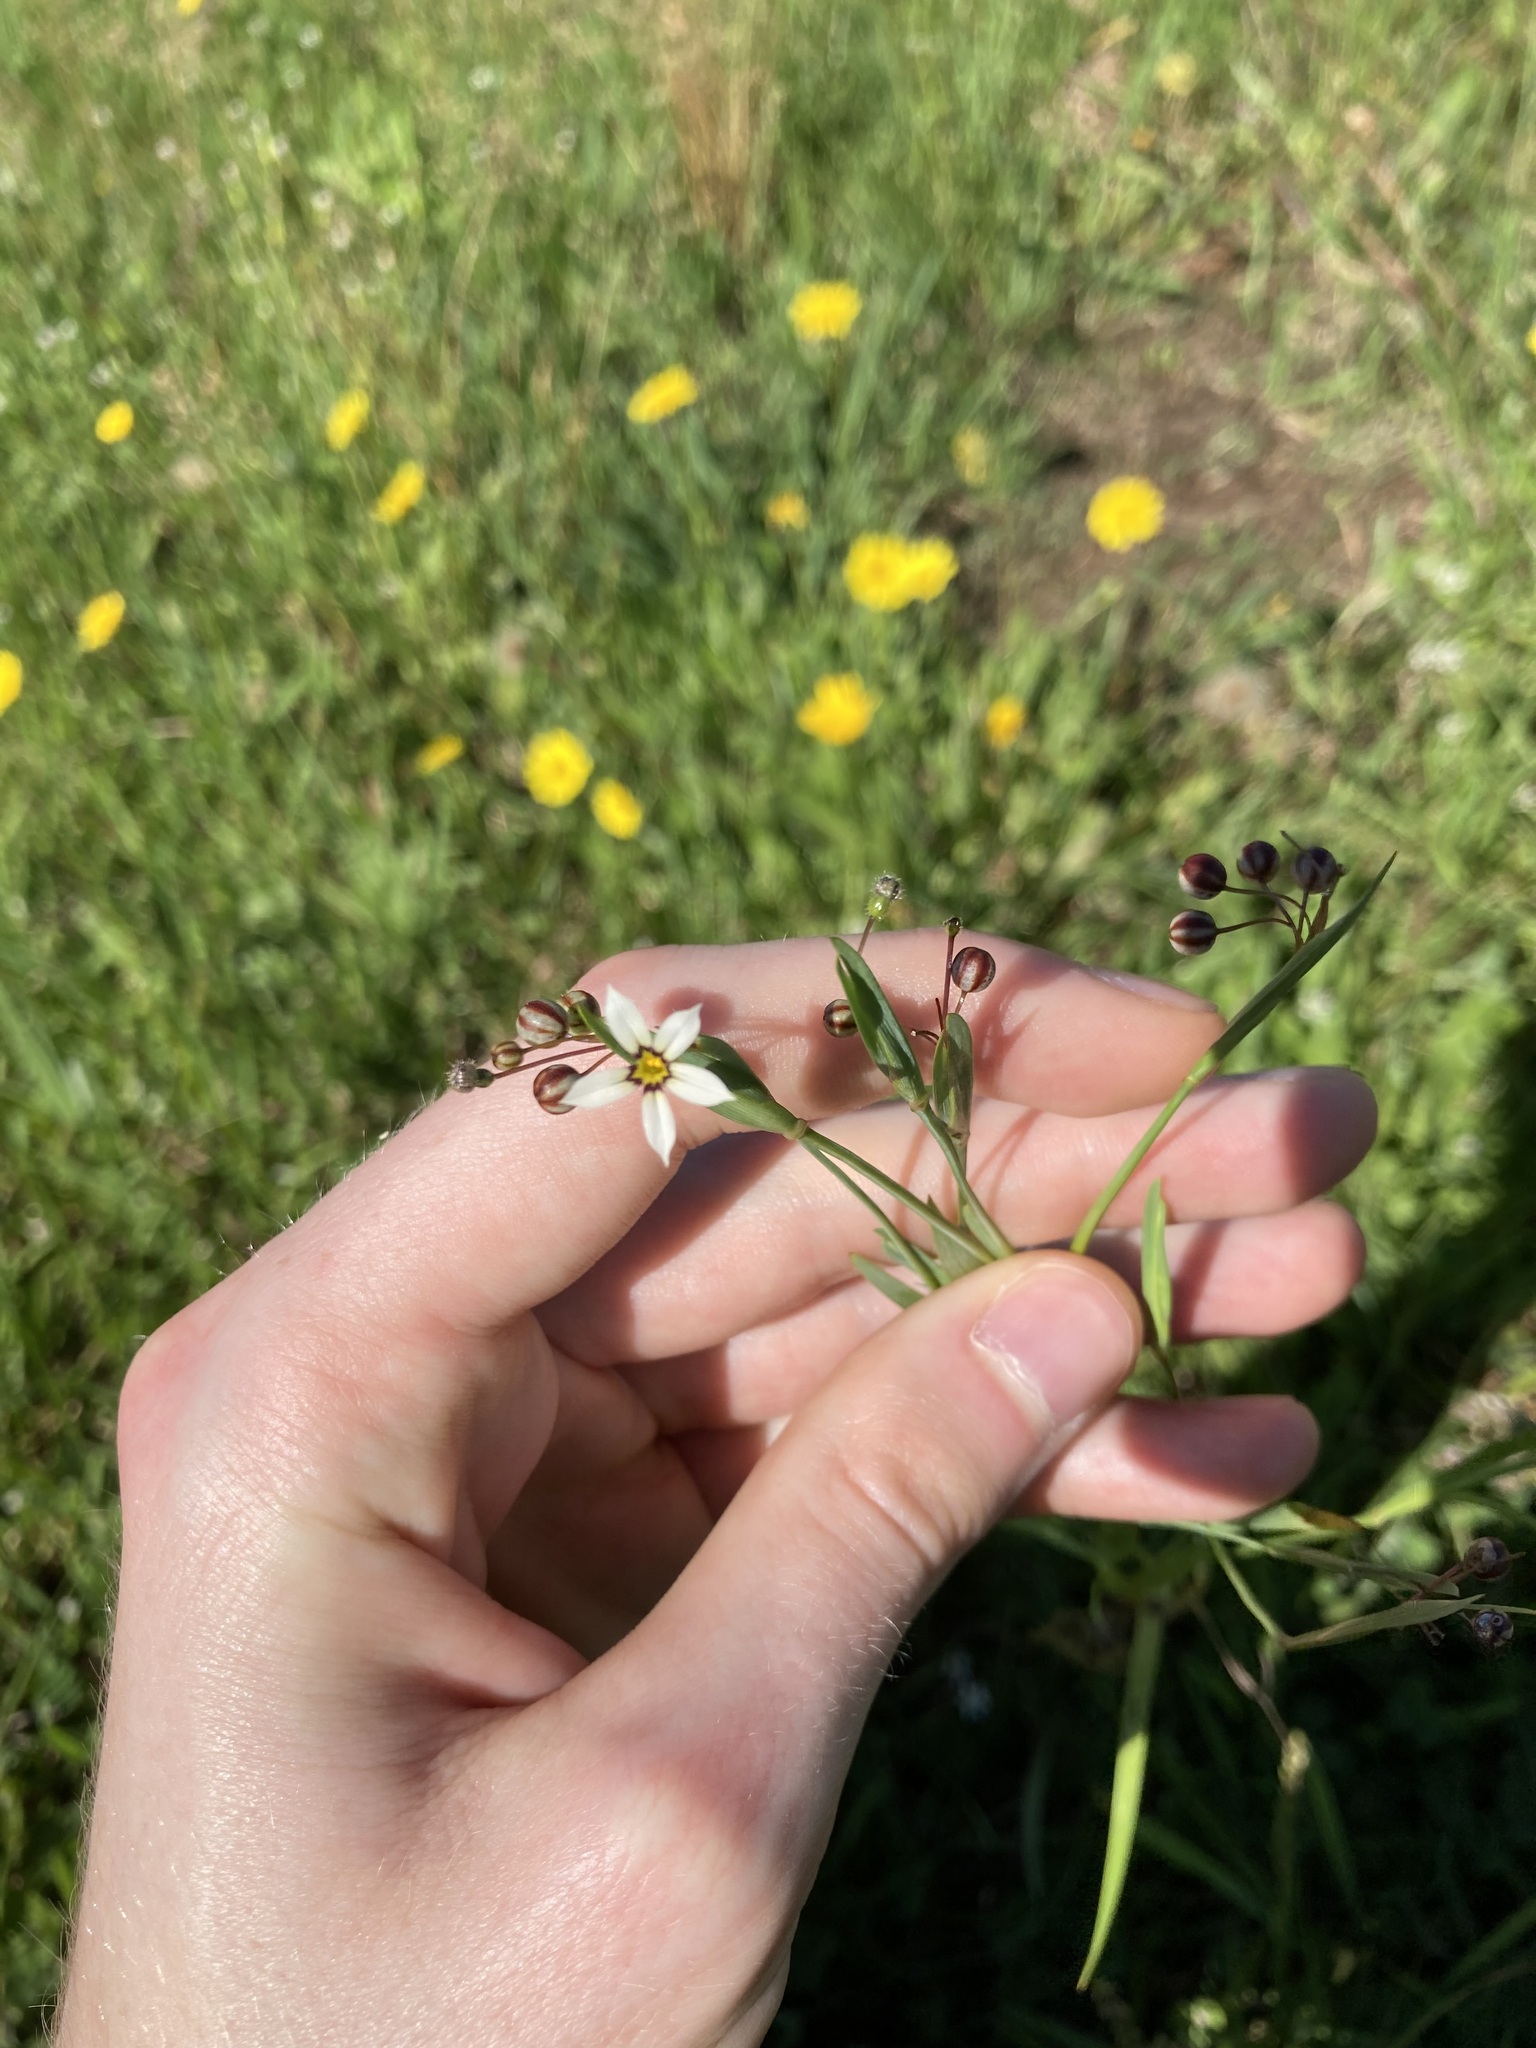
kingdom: Plantae
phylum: Tracheophyta
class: Liliopsida
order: Asparagales
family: Iridaceae
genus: Sisyrinchium
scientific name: Sisyrinchium micranthum
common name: Bermuda pigroot
